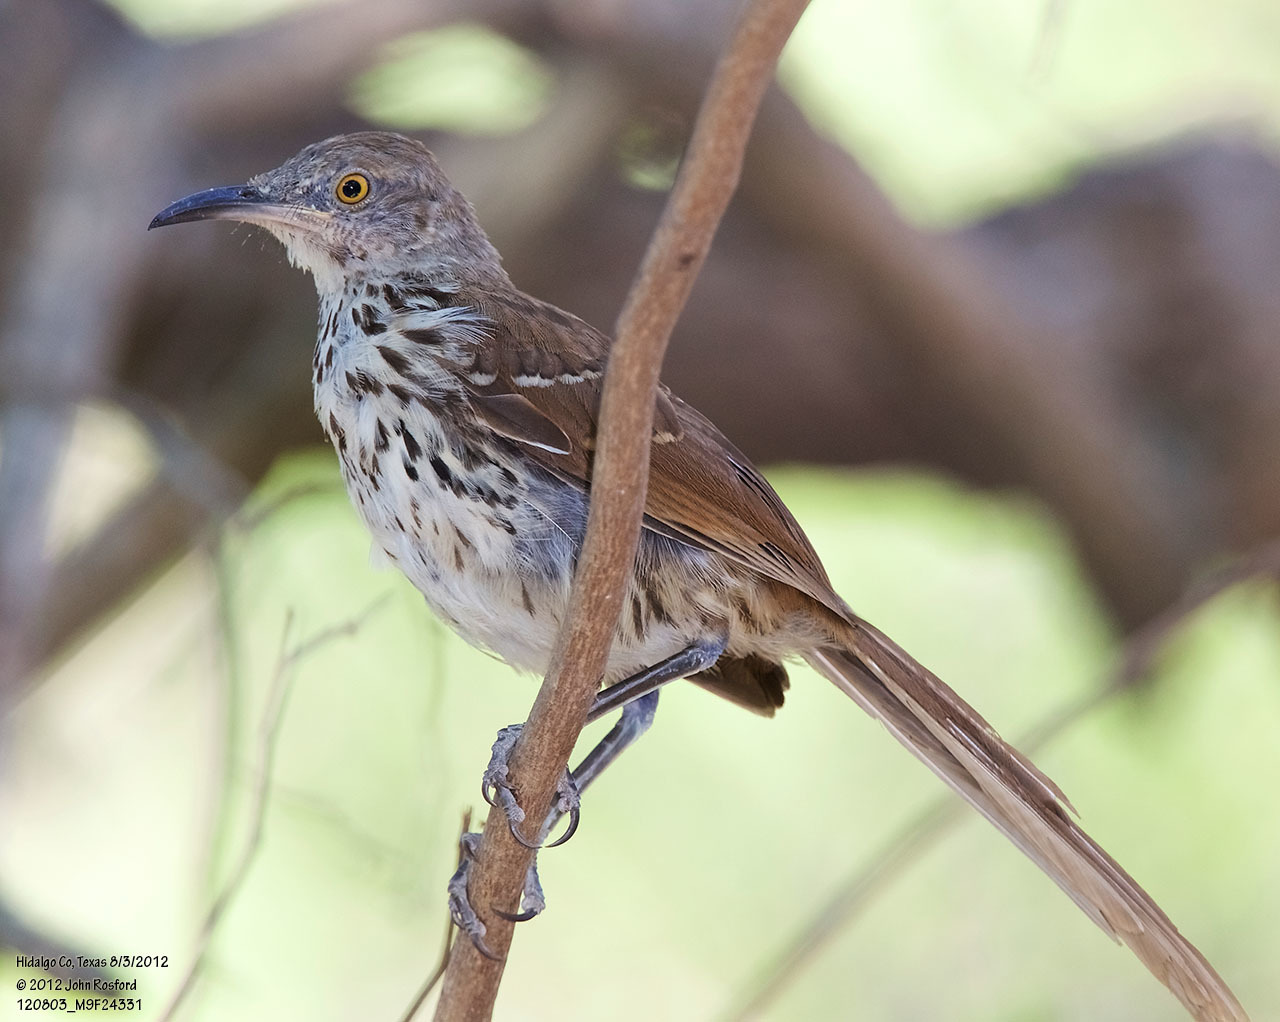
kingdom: Animalia
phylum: Chordata
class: Aves
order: Passeriformes
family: Mimidae
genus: Toxostoma
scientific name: Toxostoma longirostre
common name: Long-billed thrasher
